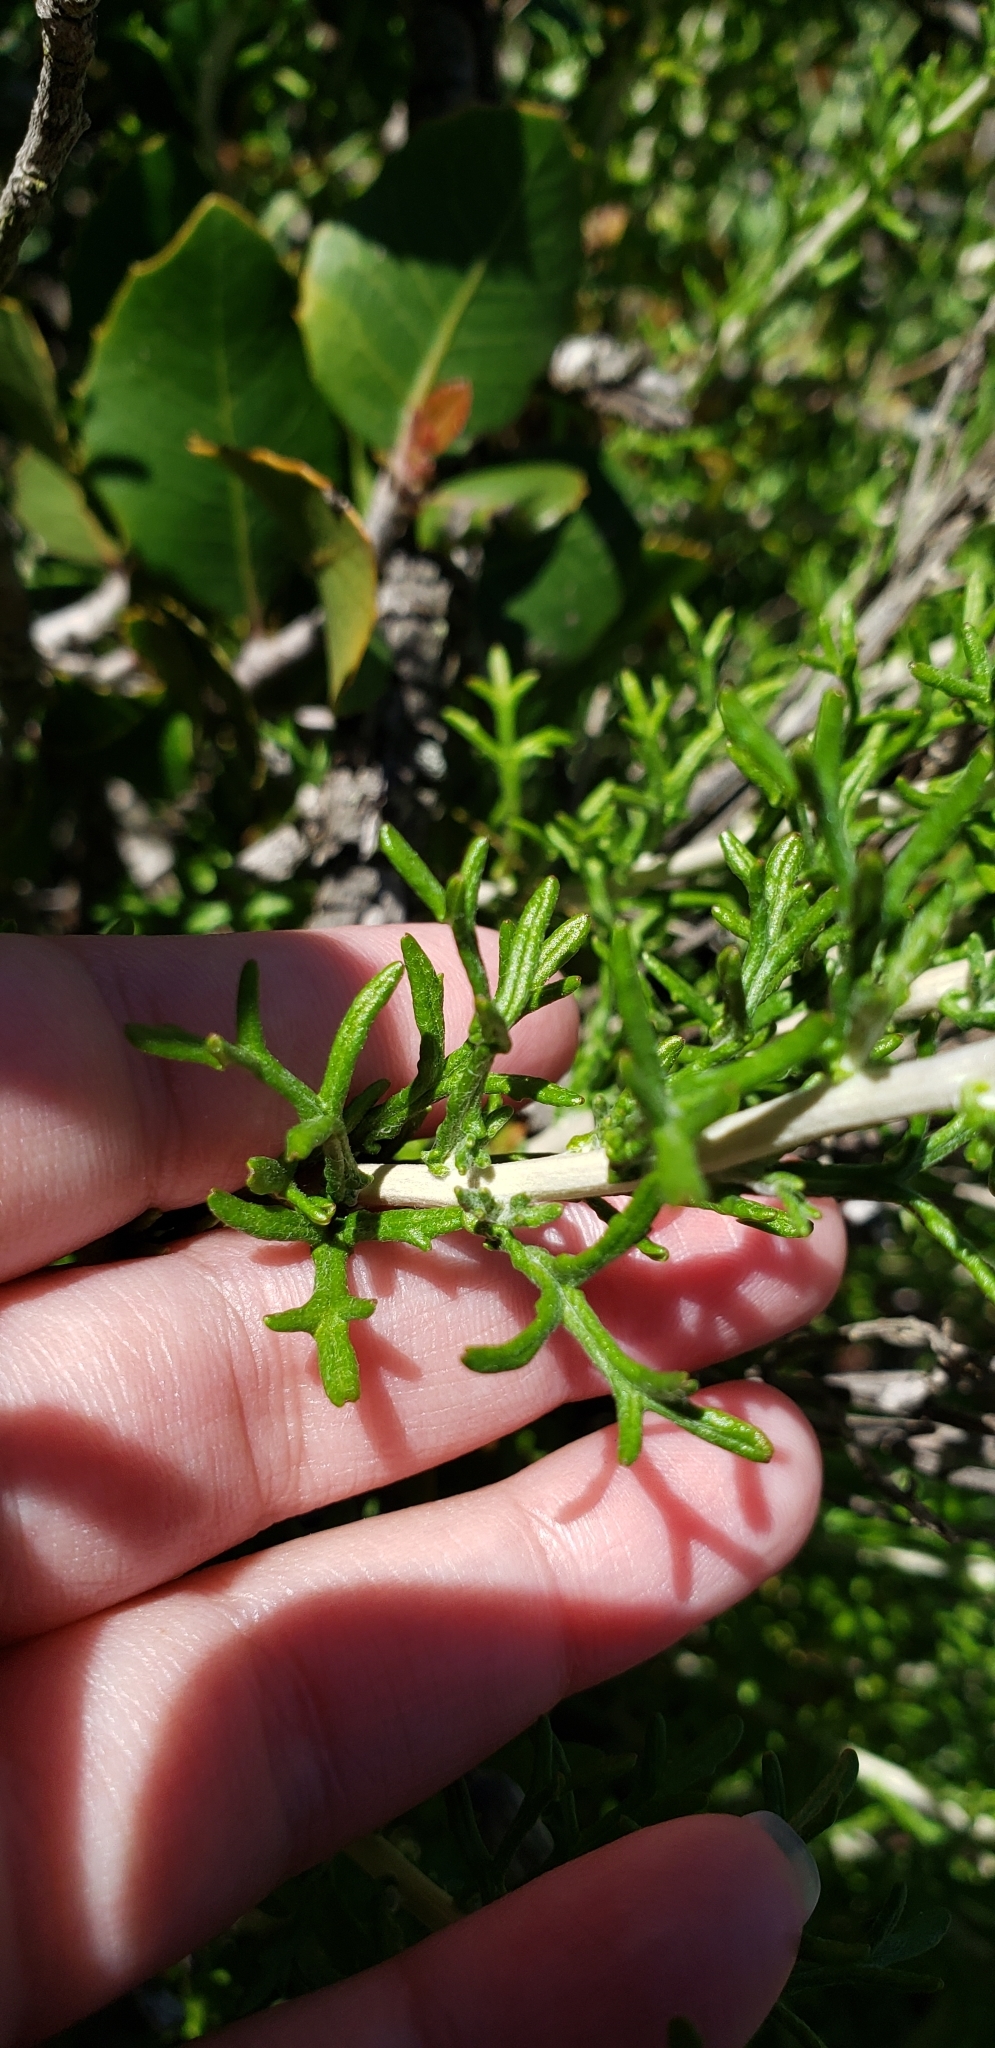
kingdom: Plantae
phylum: Tracheophyta
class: Magnoliopsida
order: Asterales
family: Asteraceae
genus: Eriophyllum
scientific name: Eriophyllum confertiflorum
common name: Golden-yarrow
